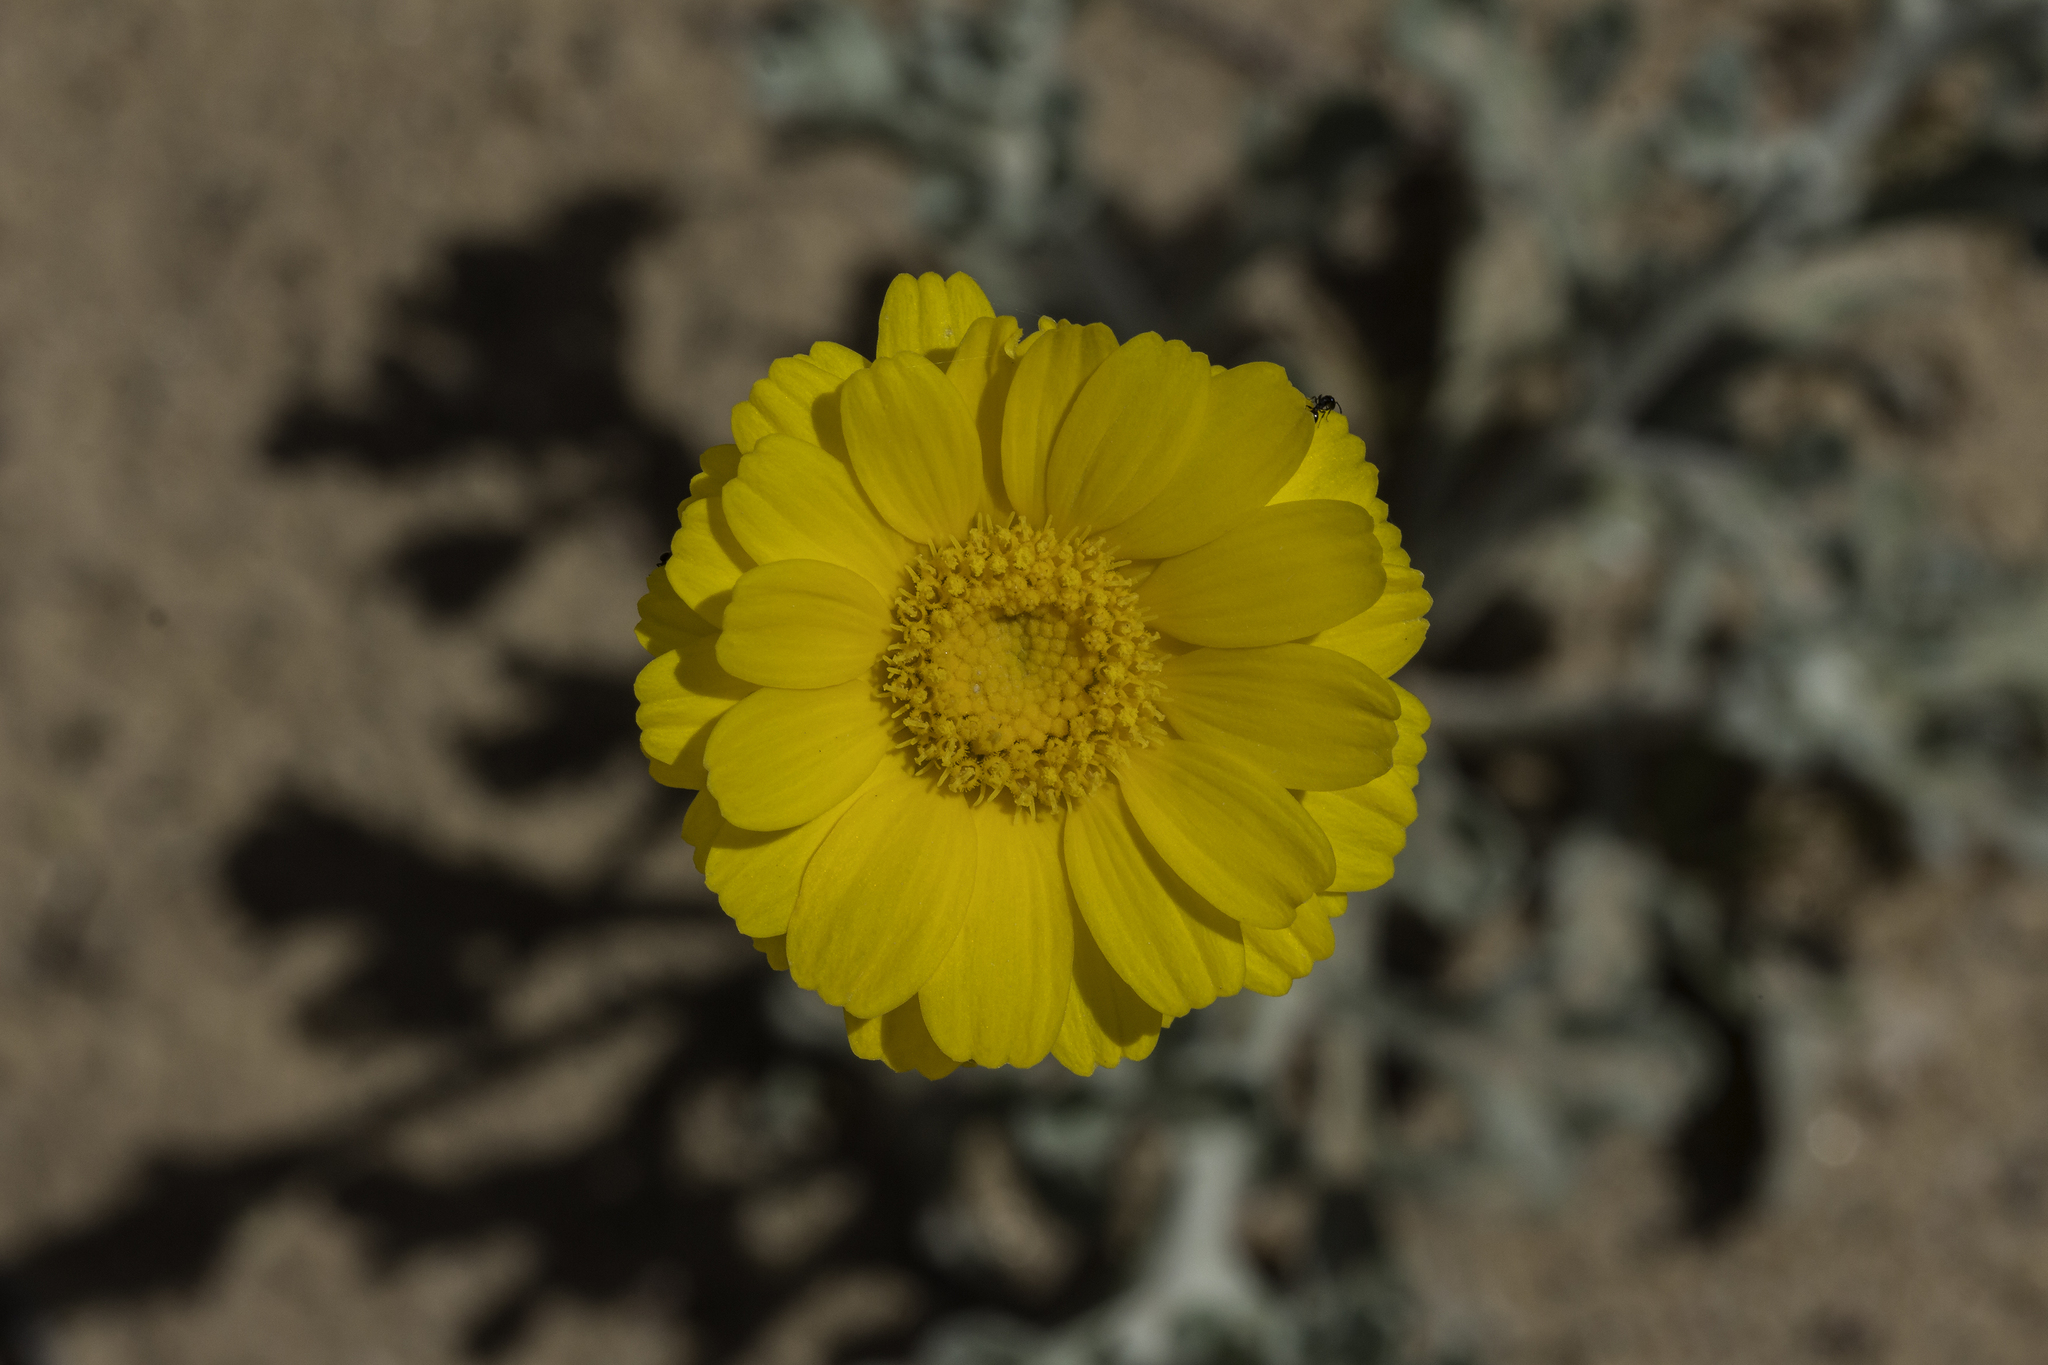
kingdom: Plantae
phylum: Tracheophyta
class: Magnoliopsida
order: Asterales
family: Asteraceae
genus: Baileya
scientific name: Baileya multiradiata
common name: Desert-marigold
